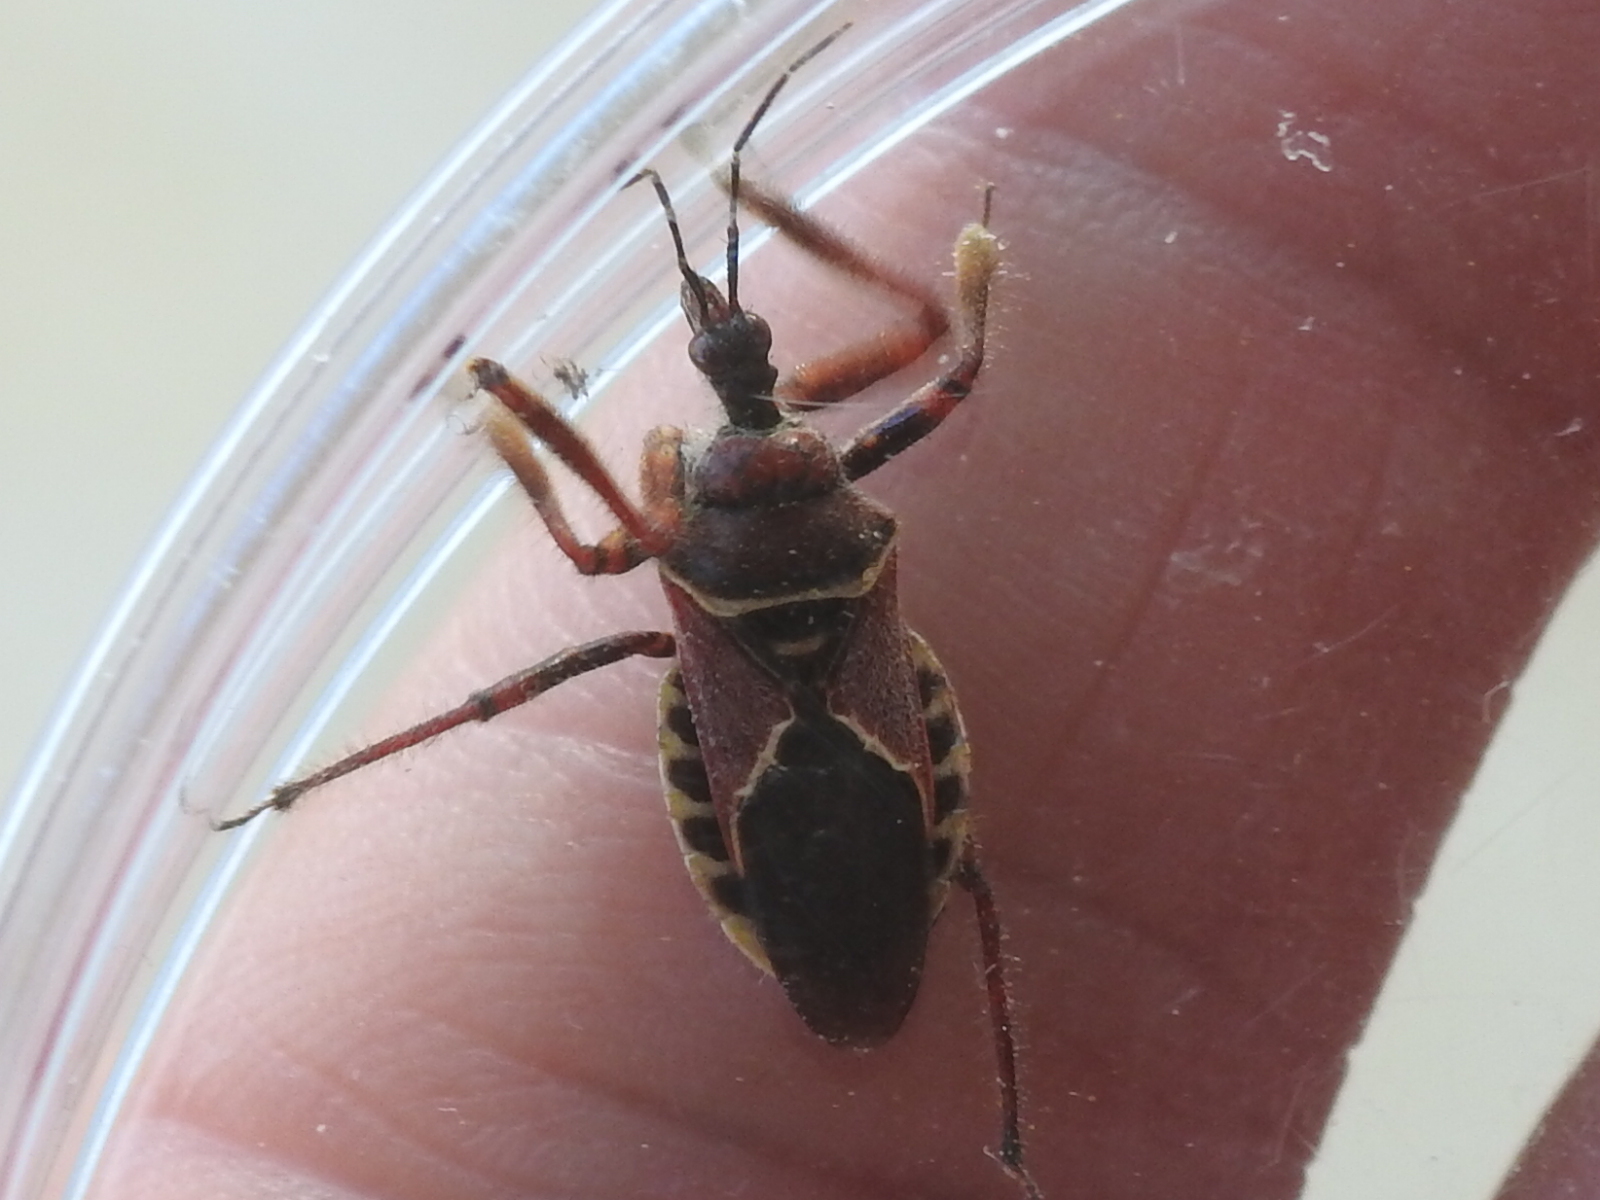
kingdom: Animalia
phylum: Arthropoda
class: Insecta
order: Hemiptera
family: Reduviidae
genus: Apiomerus
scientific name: Apiomerus spissipes
